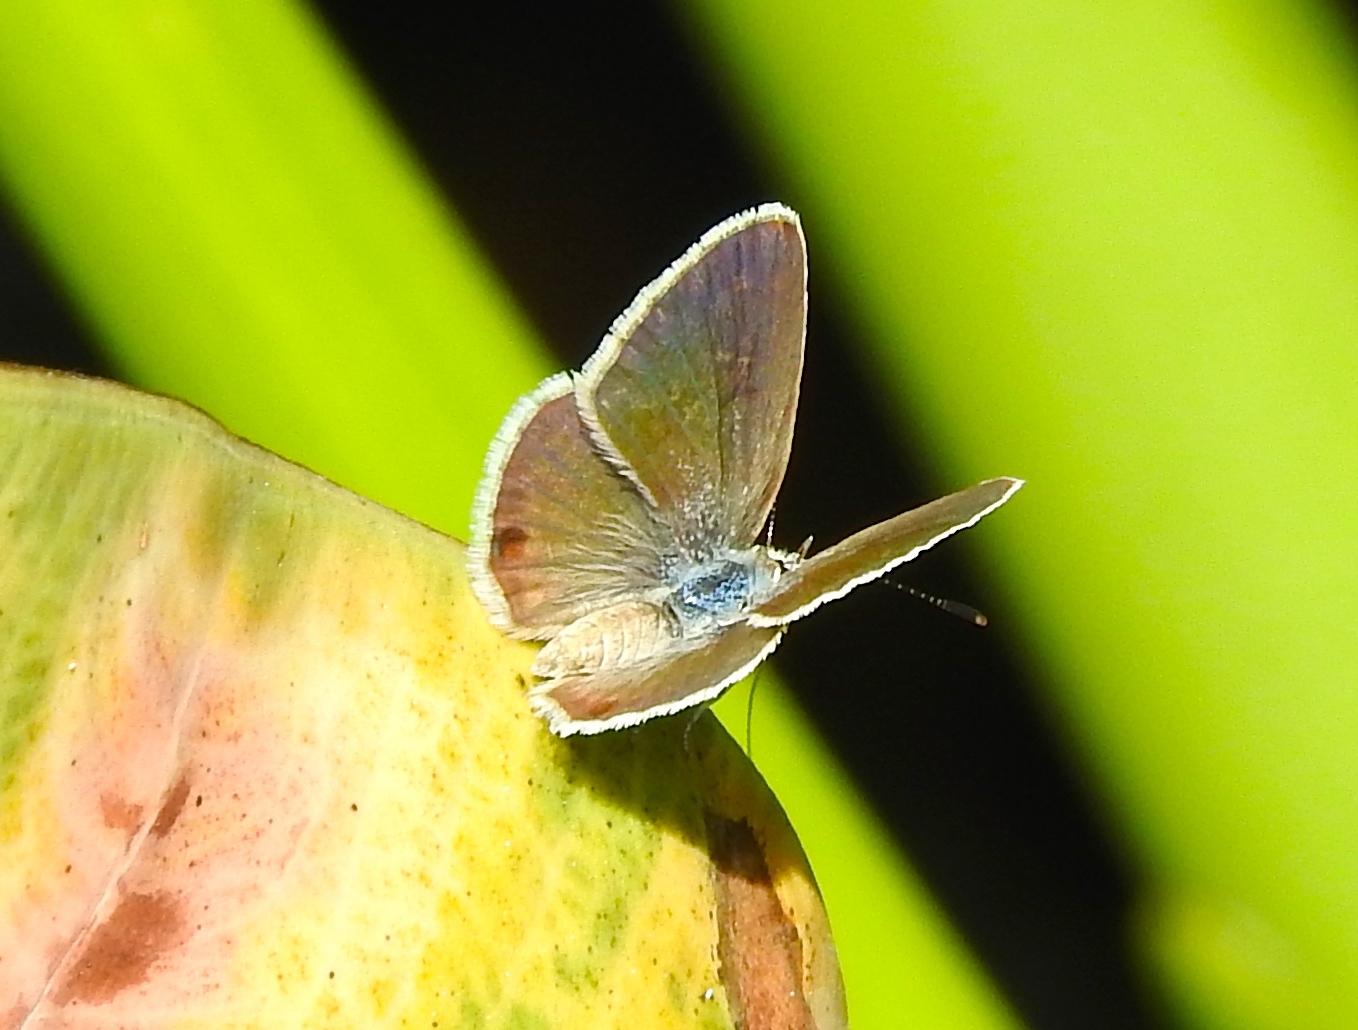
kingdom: Animalia
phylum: Arthropoda
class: Insecta
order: Lepidoptera
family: Lycaenidae
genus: Echinargus
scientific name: Echinargus isola
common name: Reakirt's blue
